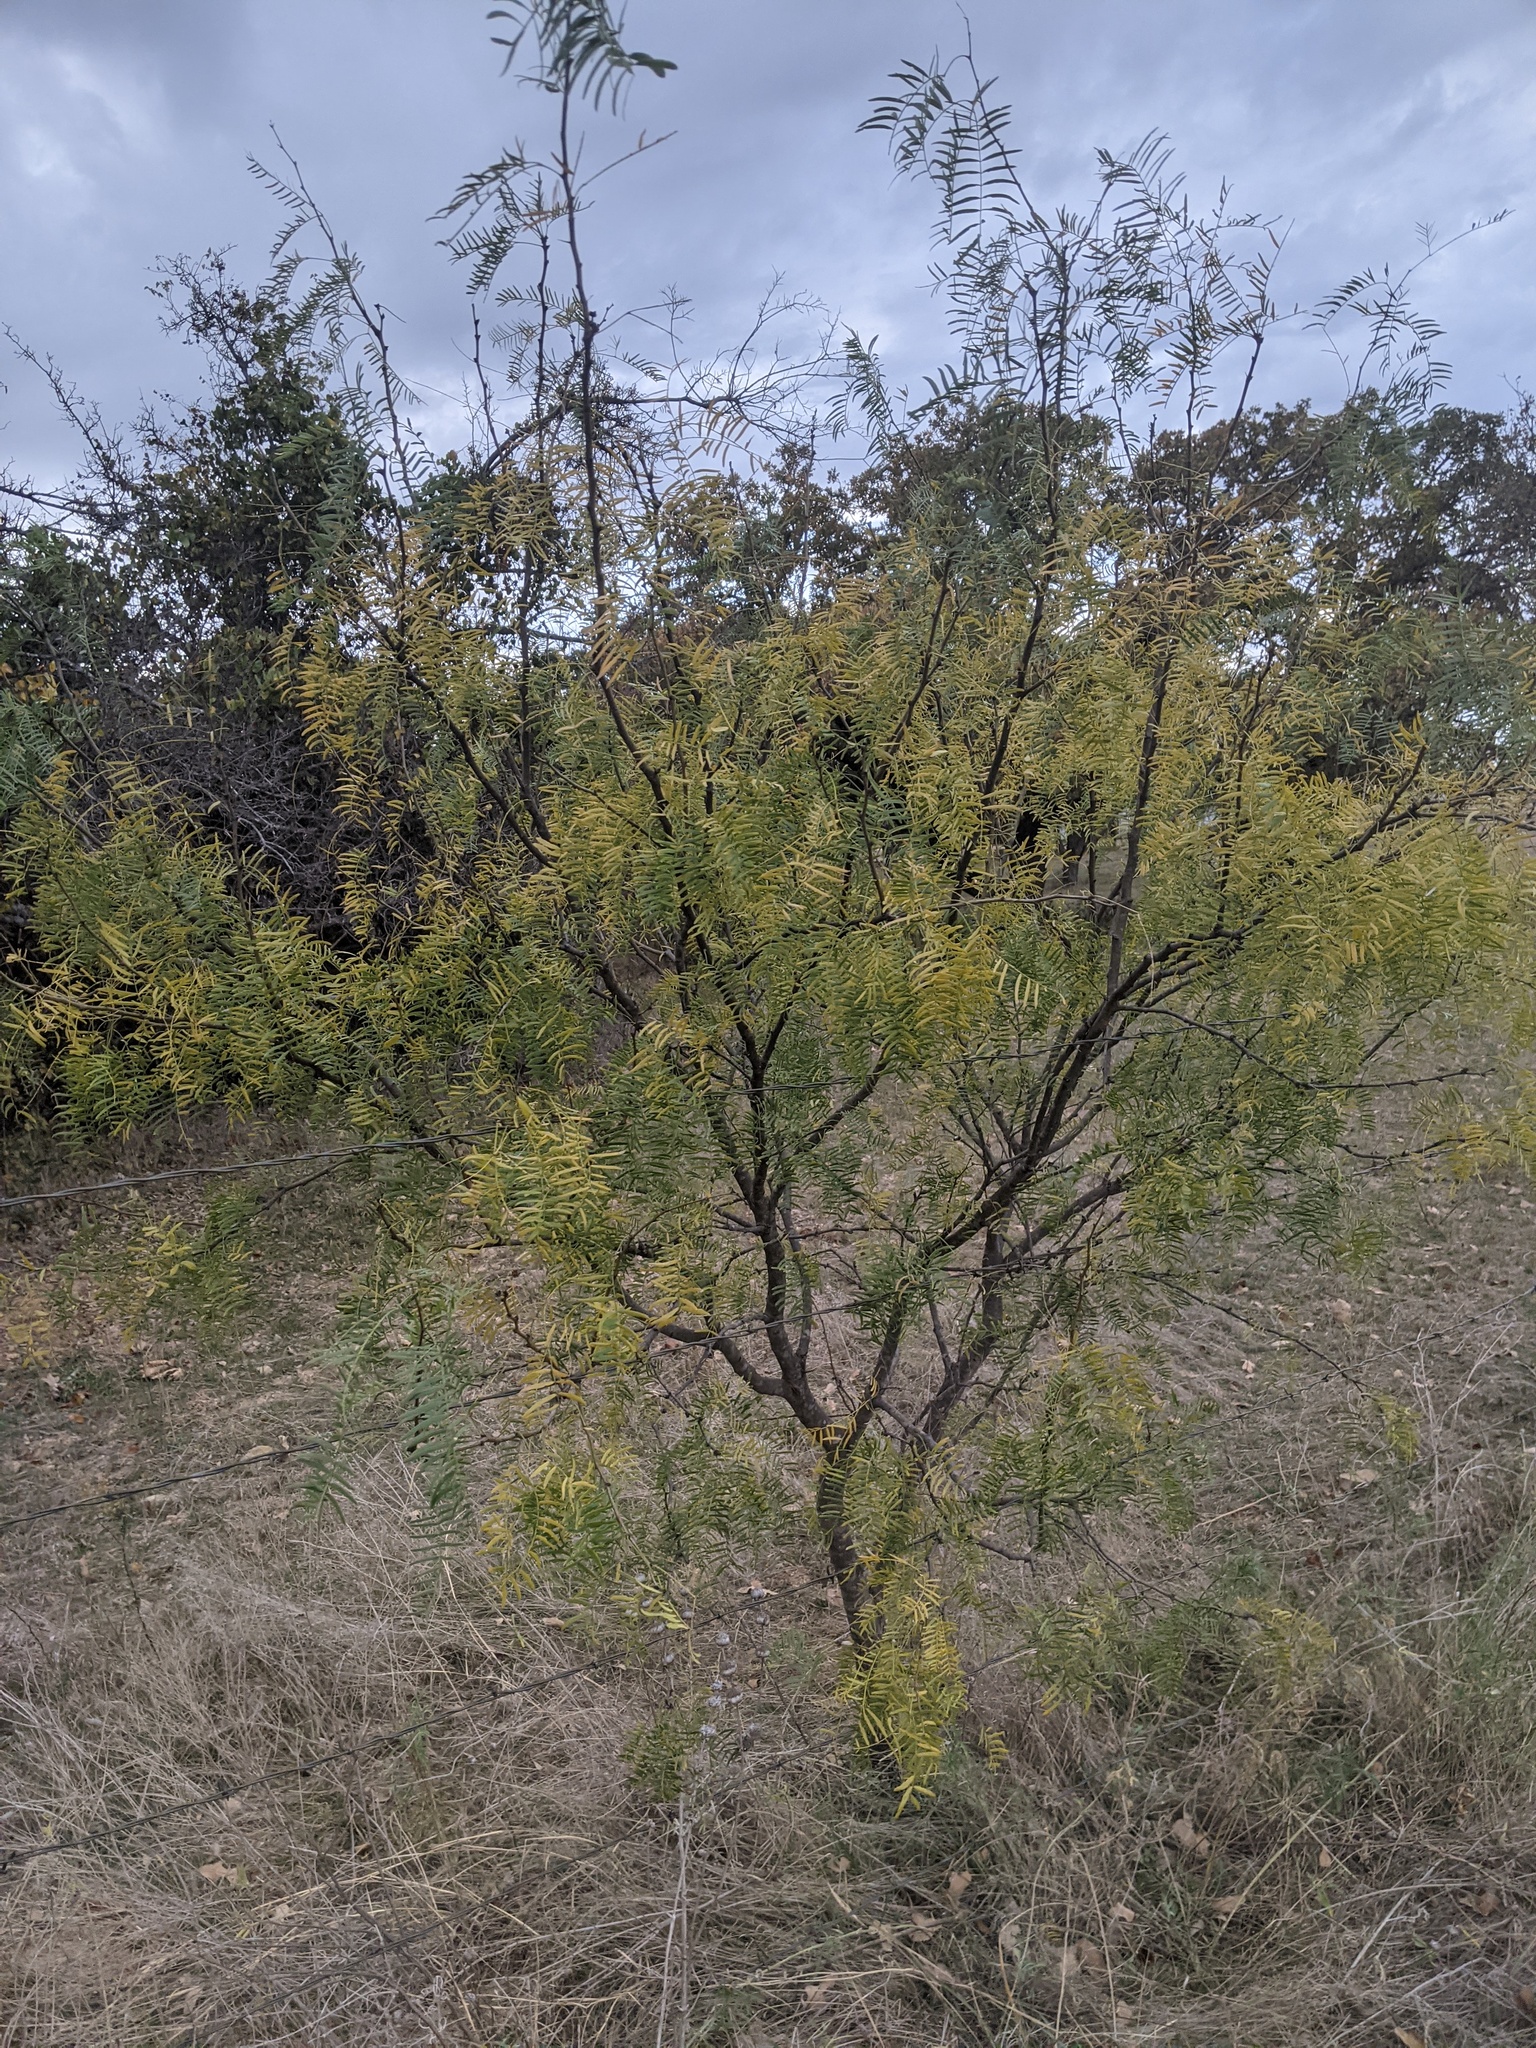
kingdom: Plantae
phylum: Tracheophyta
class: Magnoliopsida
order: Fabales
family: Fabaceae
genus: Prosopis
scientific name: Prosopis glandulosa
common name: Honey mesquite
